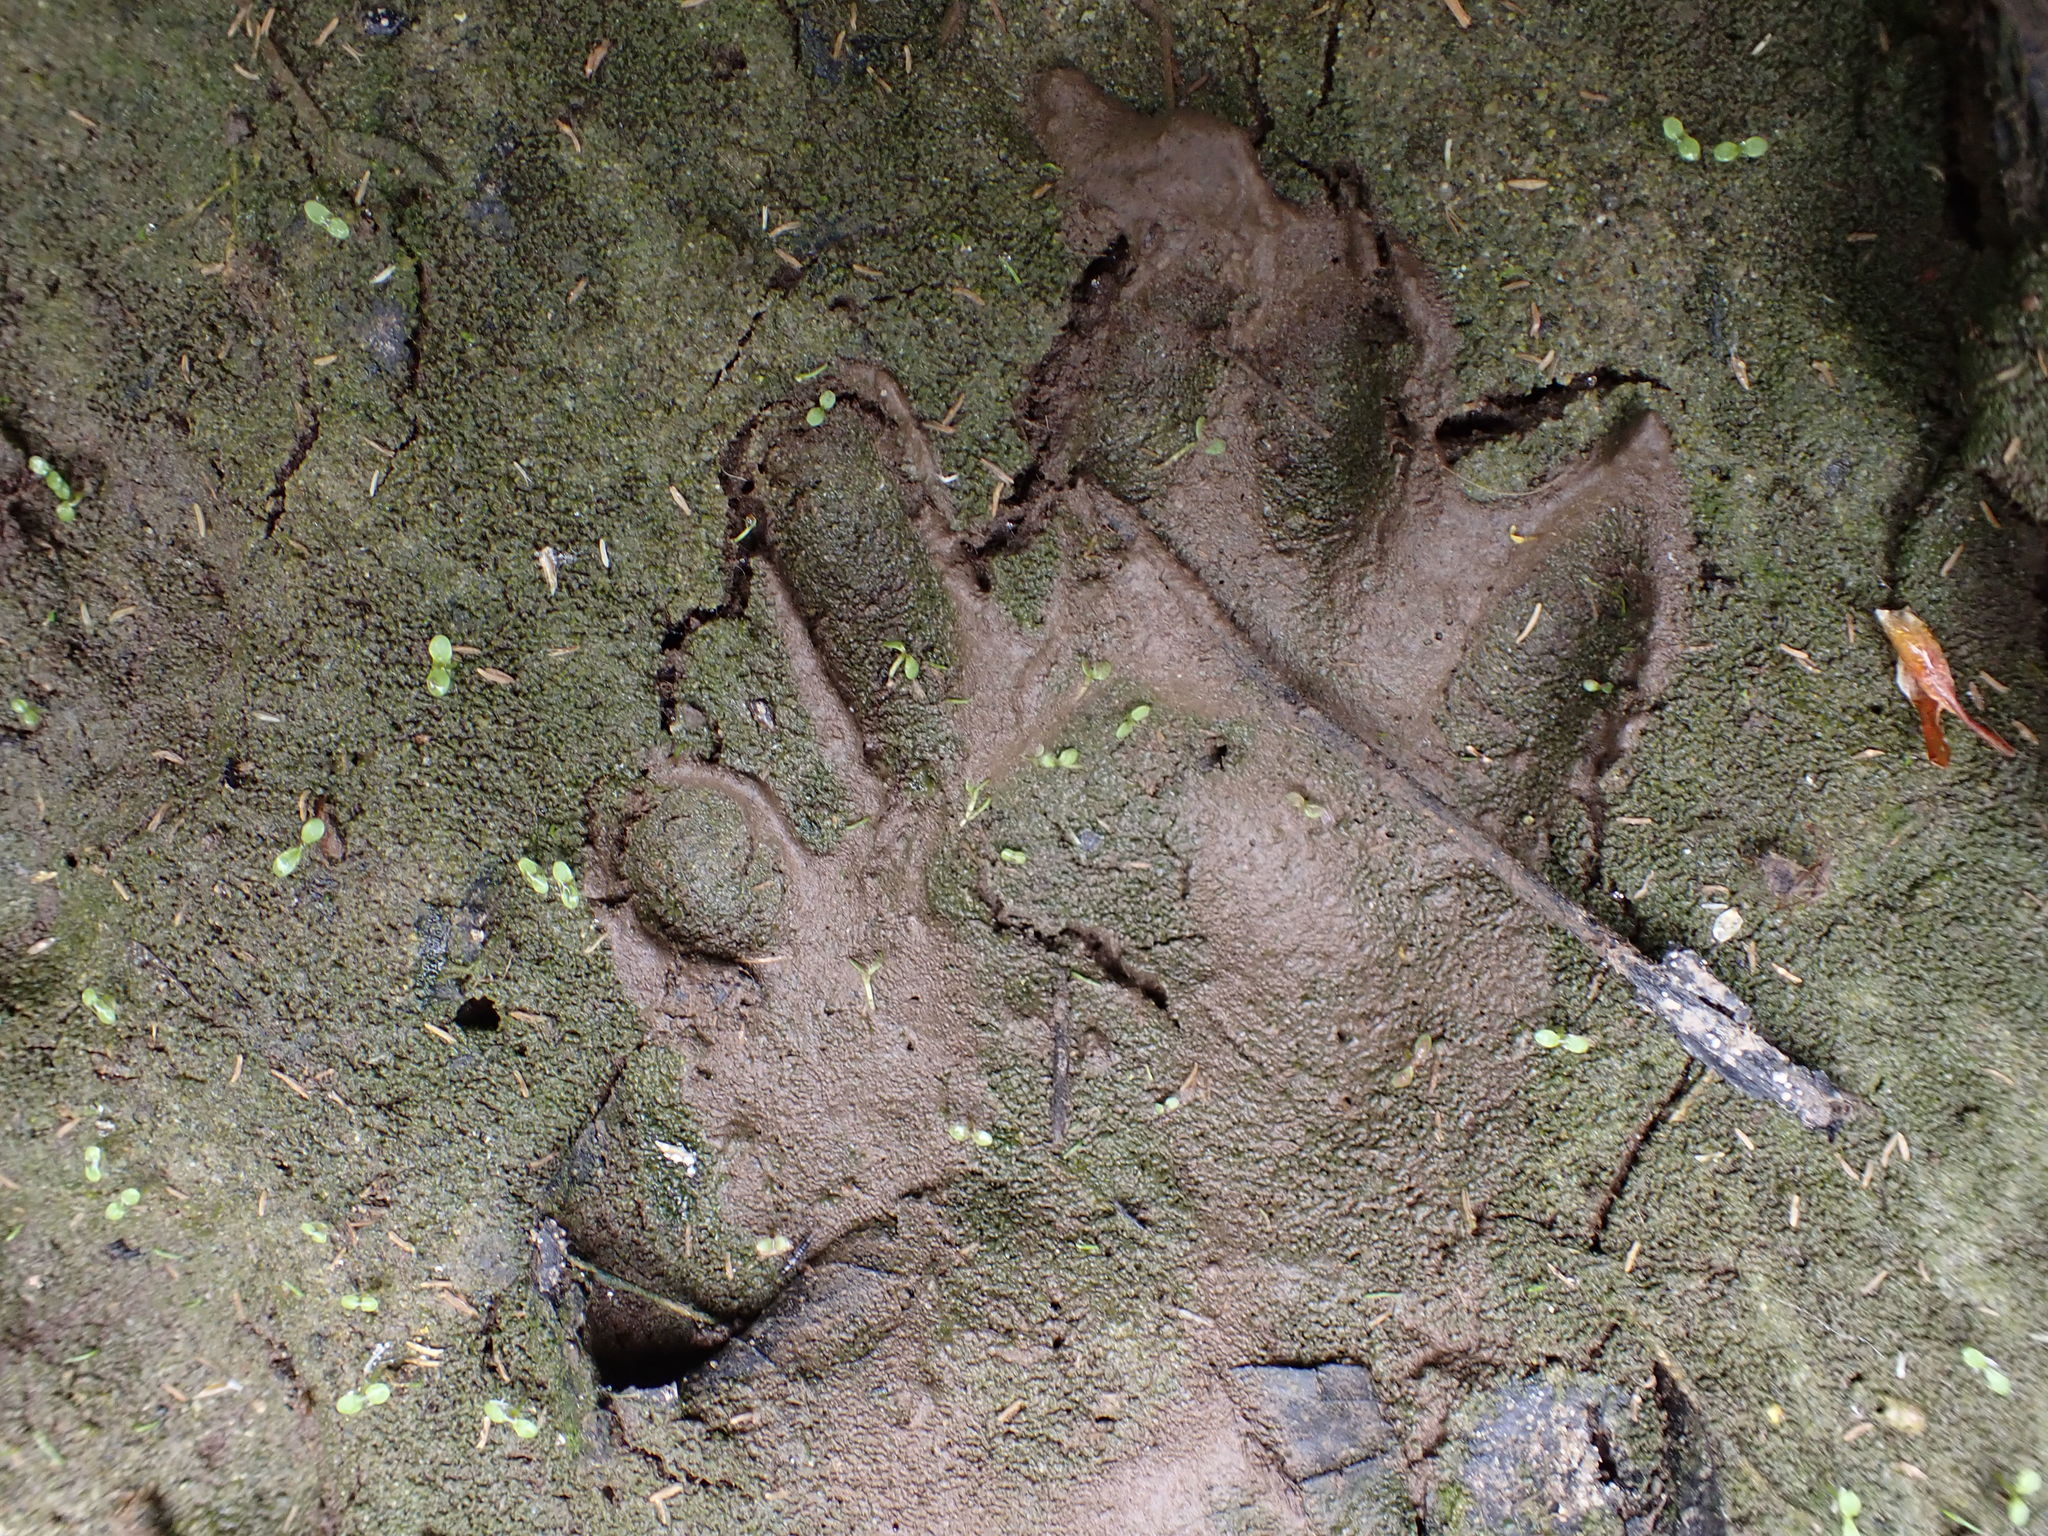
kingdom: Animalia
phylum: Chordata
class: Mammalia
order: Carnivora
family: Procyonidae
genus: Procyon
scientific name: Procyon lotor
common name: Raccoon
